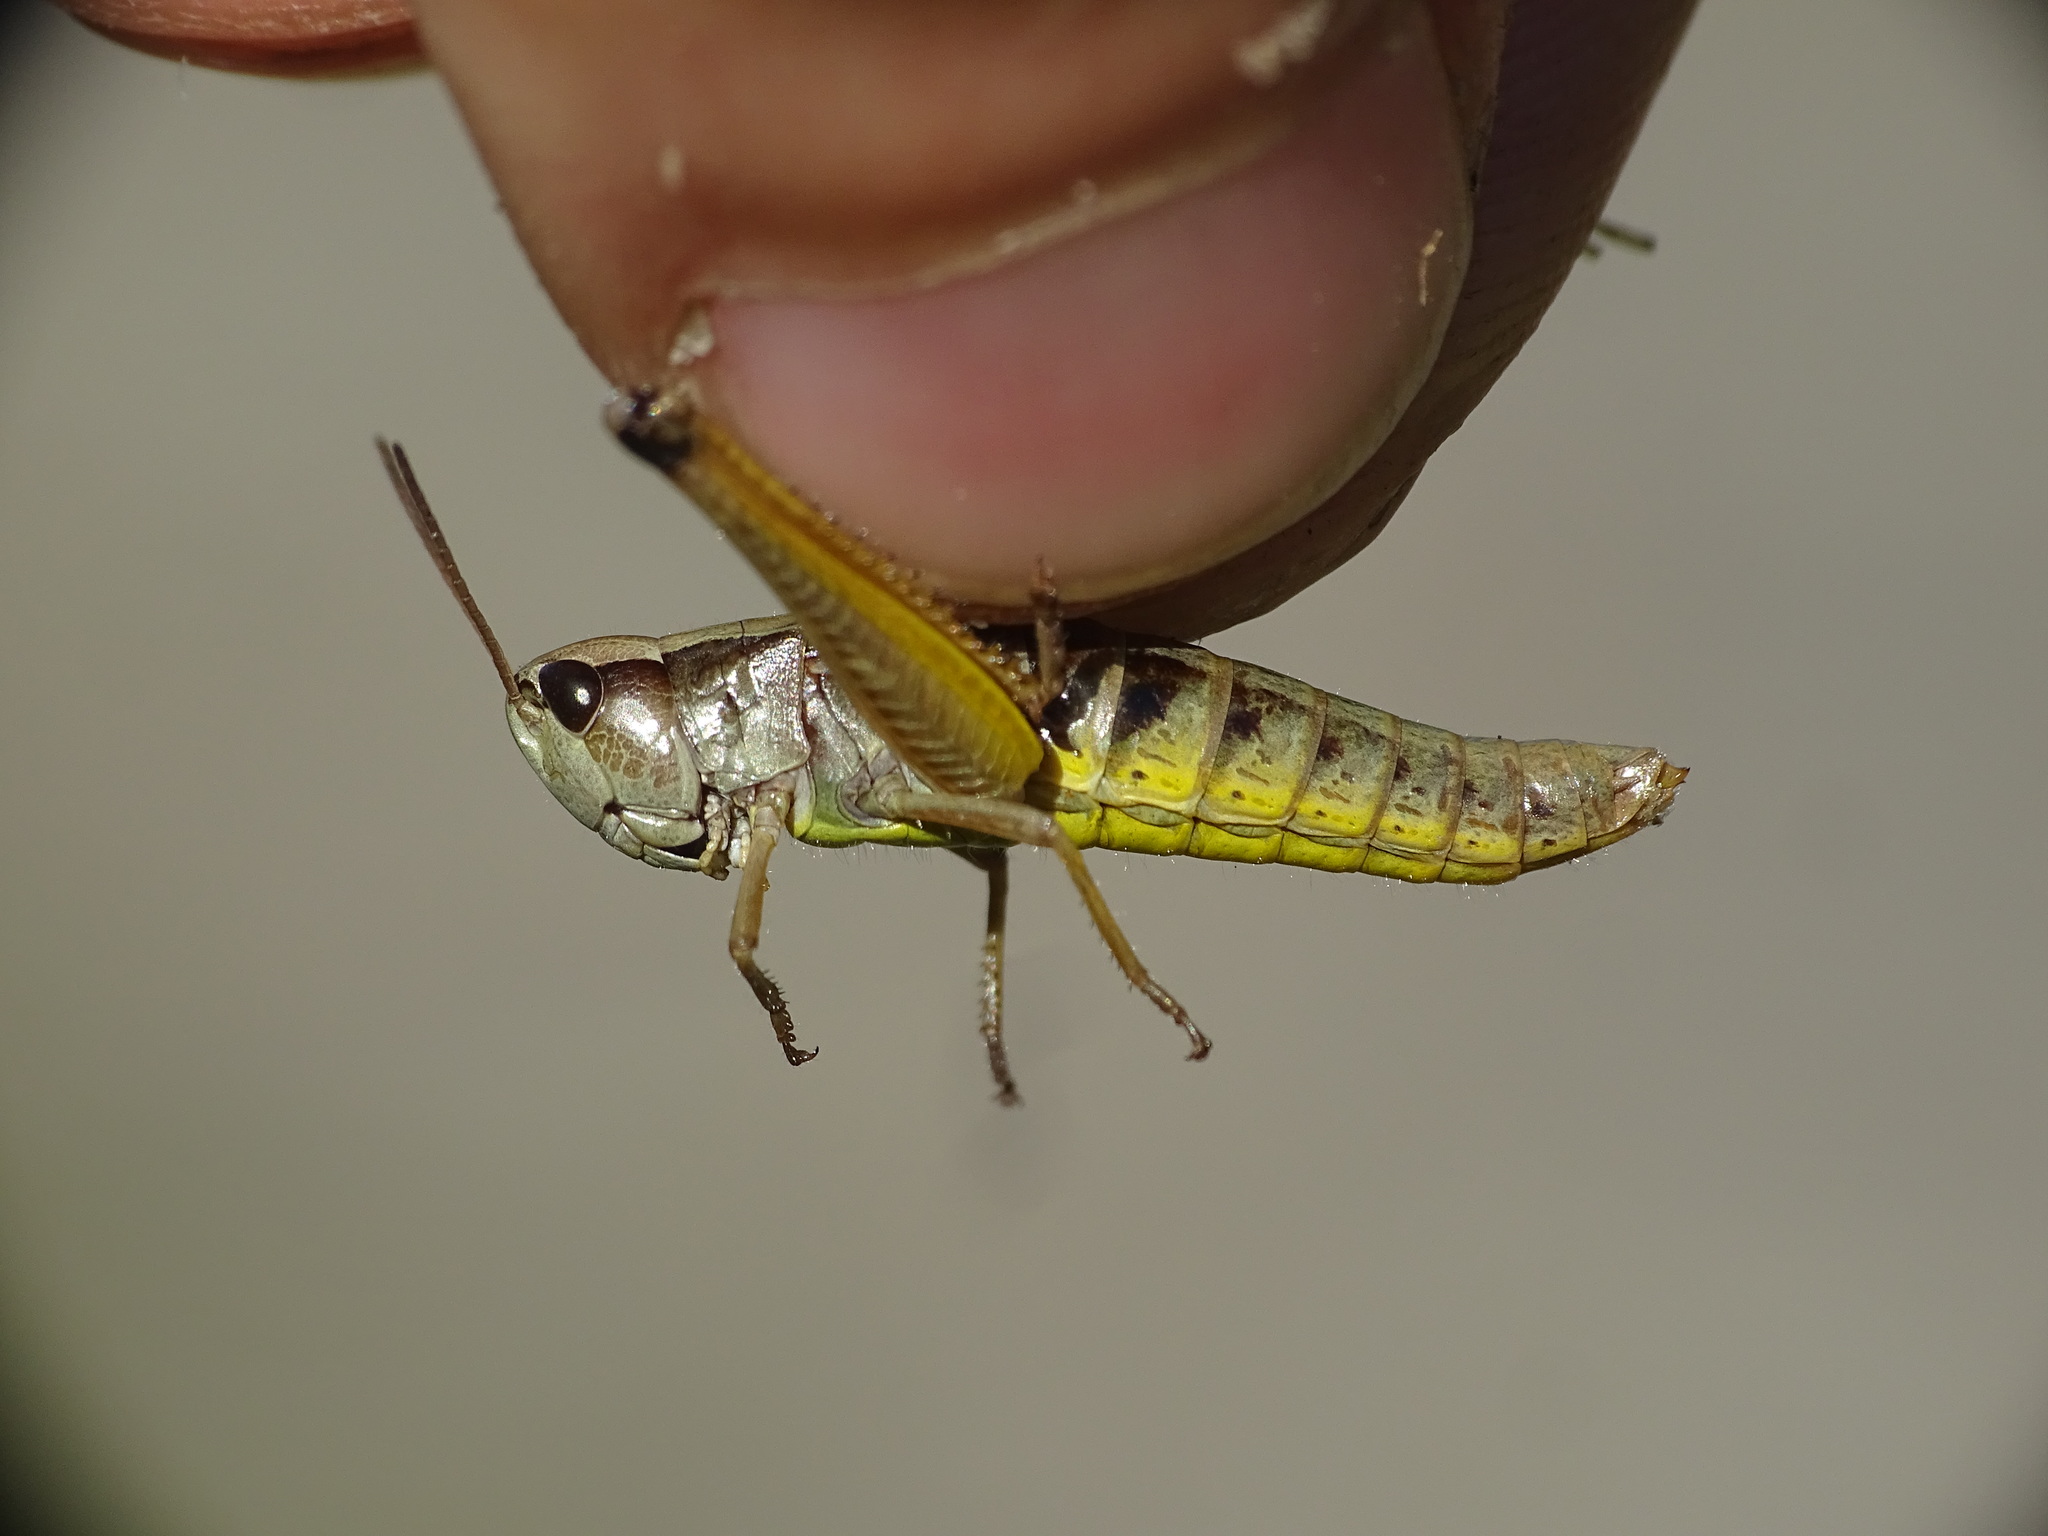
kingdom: Animalia
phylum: Arthropoda
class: Insecta
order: Orthoptera
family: Acrididae
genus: Pseudochorthippus
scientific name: Pseudochorthippus curtipennis
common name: Marsh meadow grasshopper
